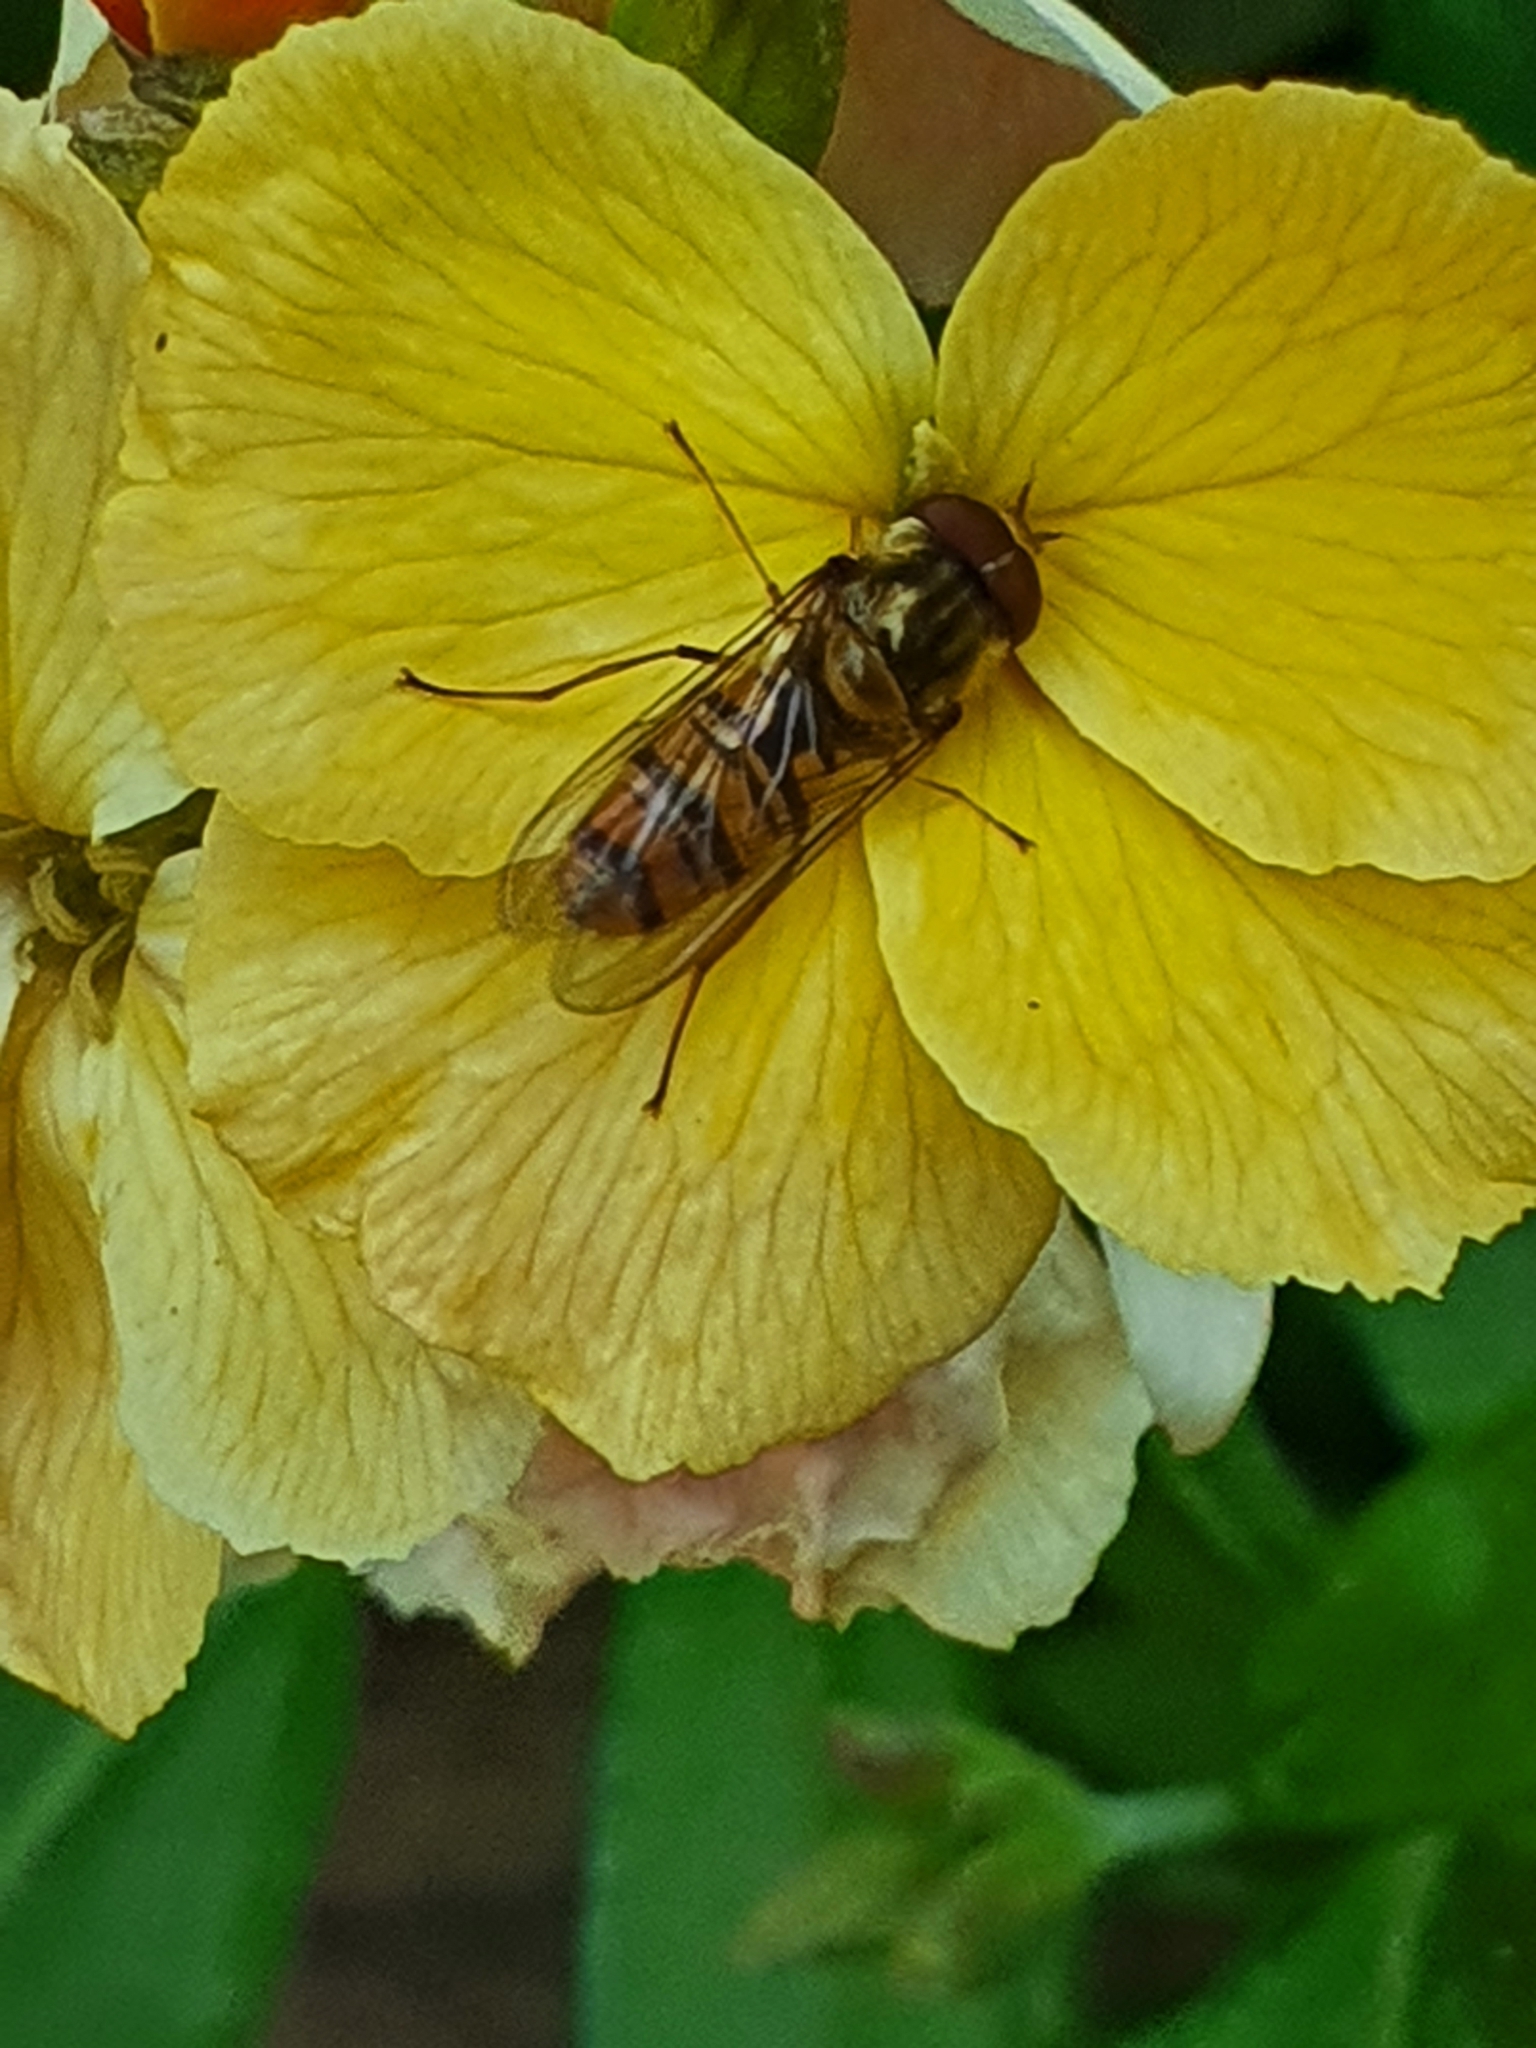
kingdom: Animalia
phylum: Arthropoda
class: Insecta
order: Diptera
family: Syrphidae
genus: Episyrphus
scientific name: Episyrphus balteatus
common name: Marmalade hoverfly
